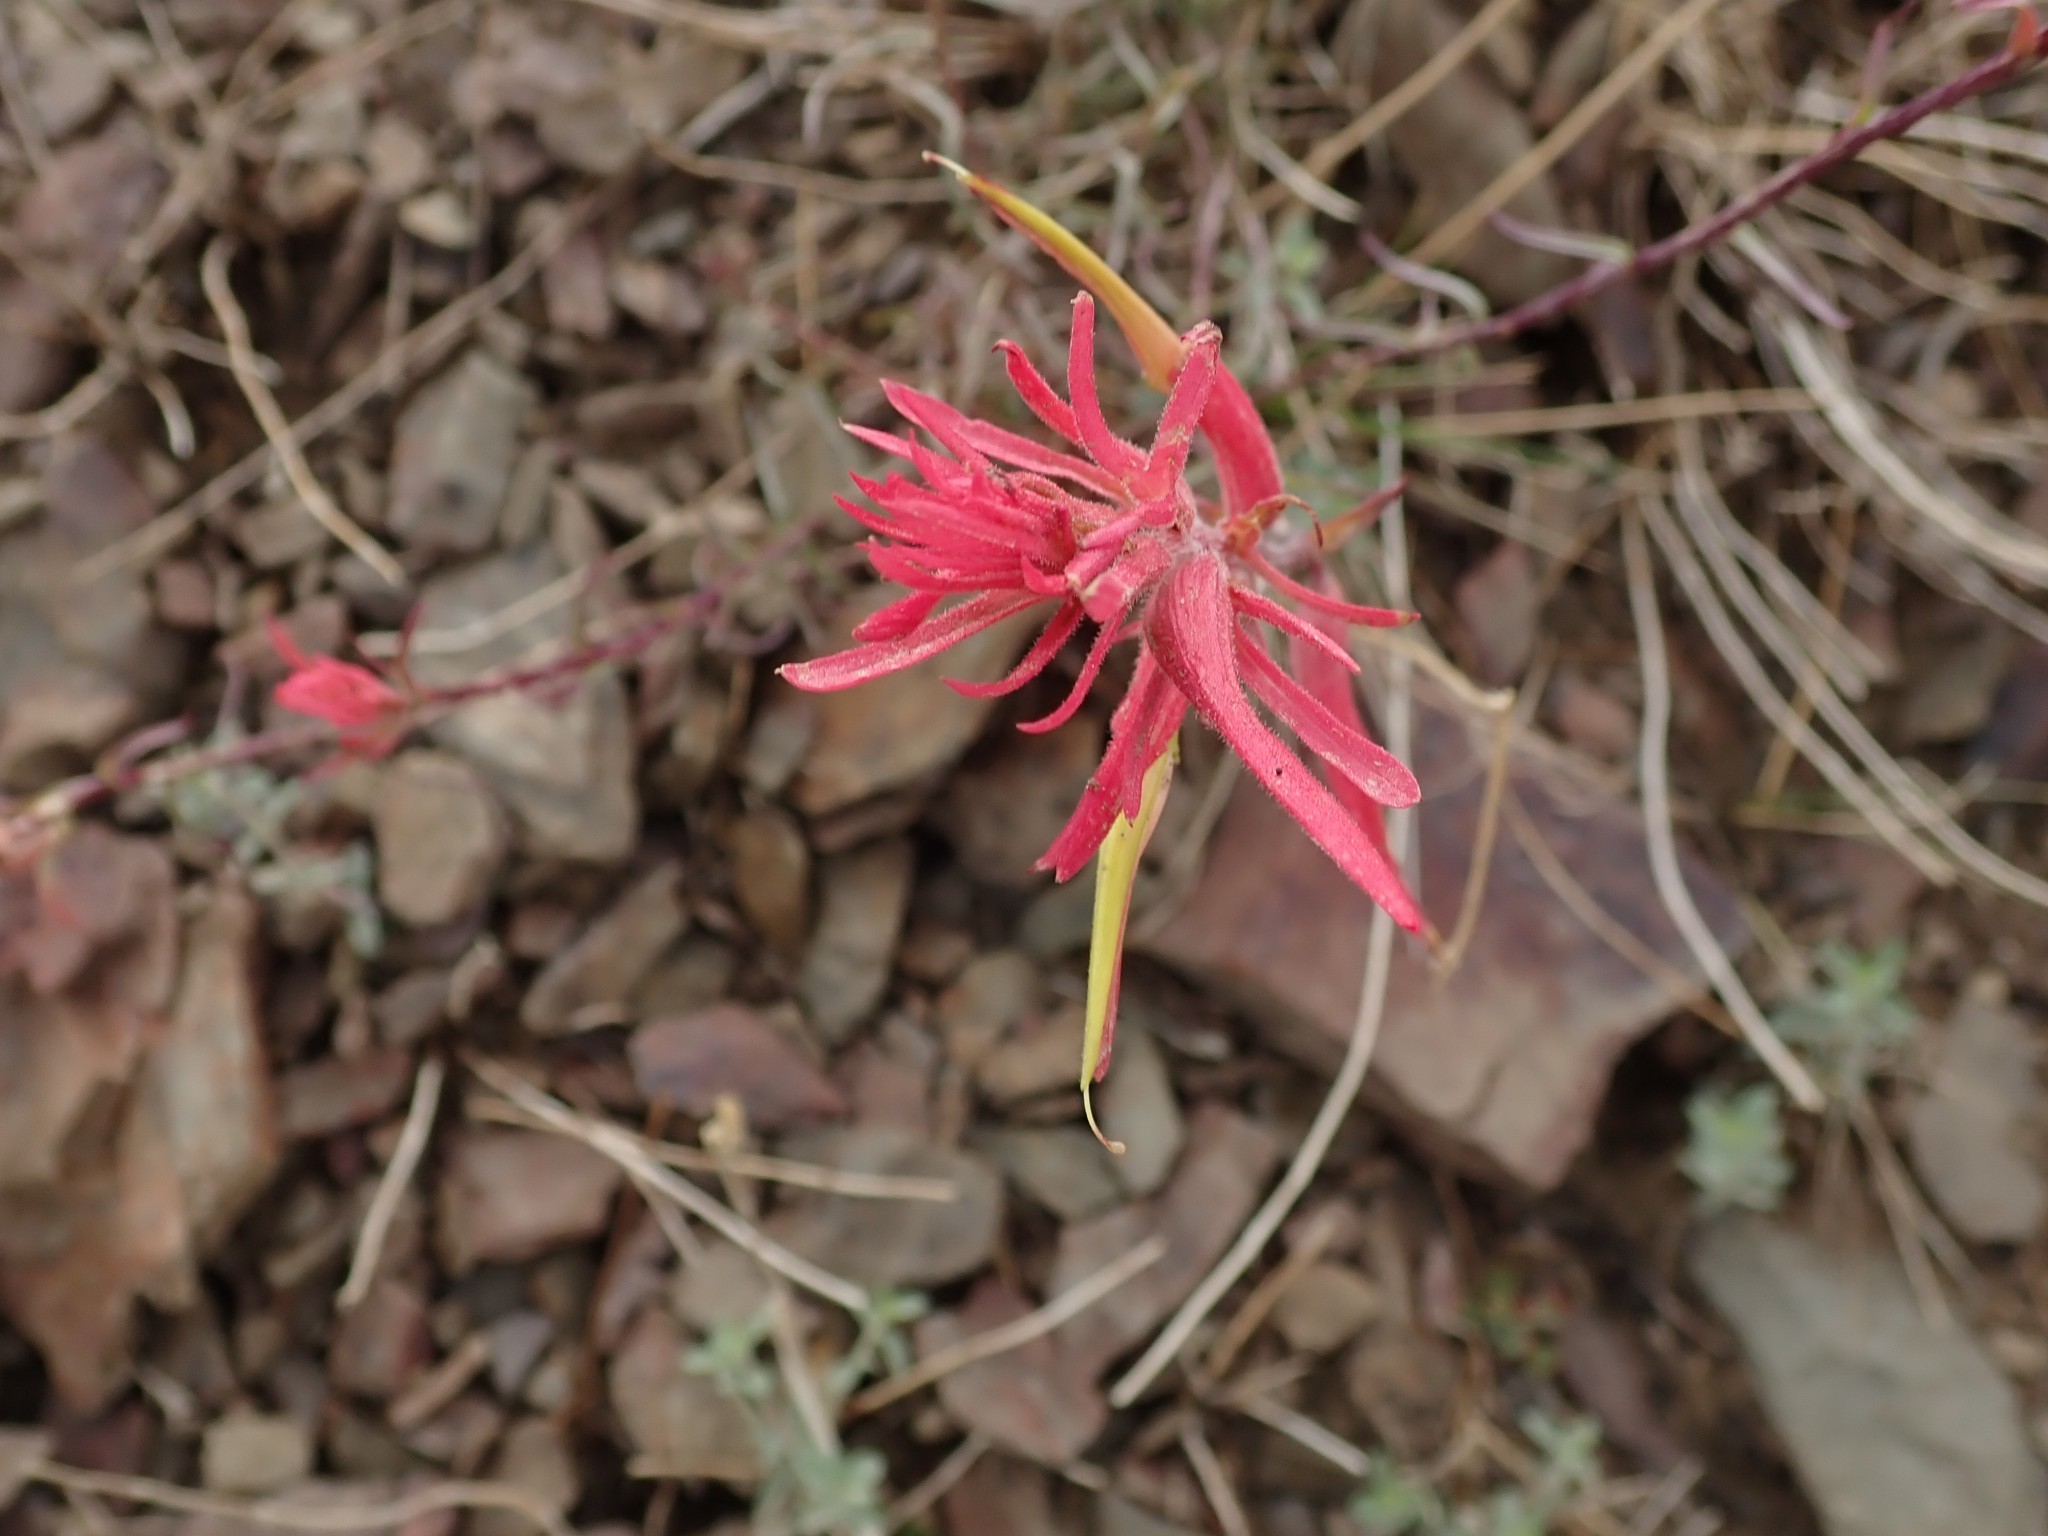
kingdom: Plantae
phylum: Tracheophyta
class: Magnoliopsida
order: Lamiales
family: Orobanchaceae
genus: Castilleja
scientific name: Castilleja linariifolia
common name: Wyoming paintbrush
